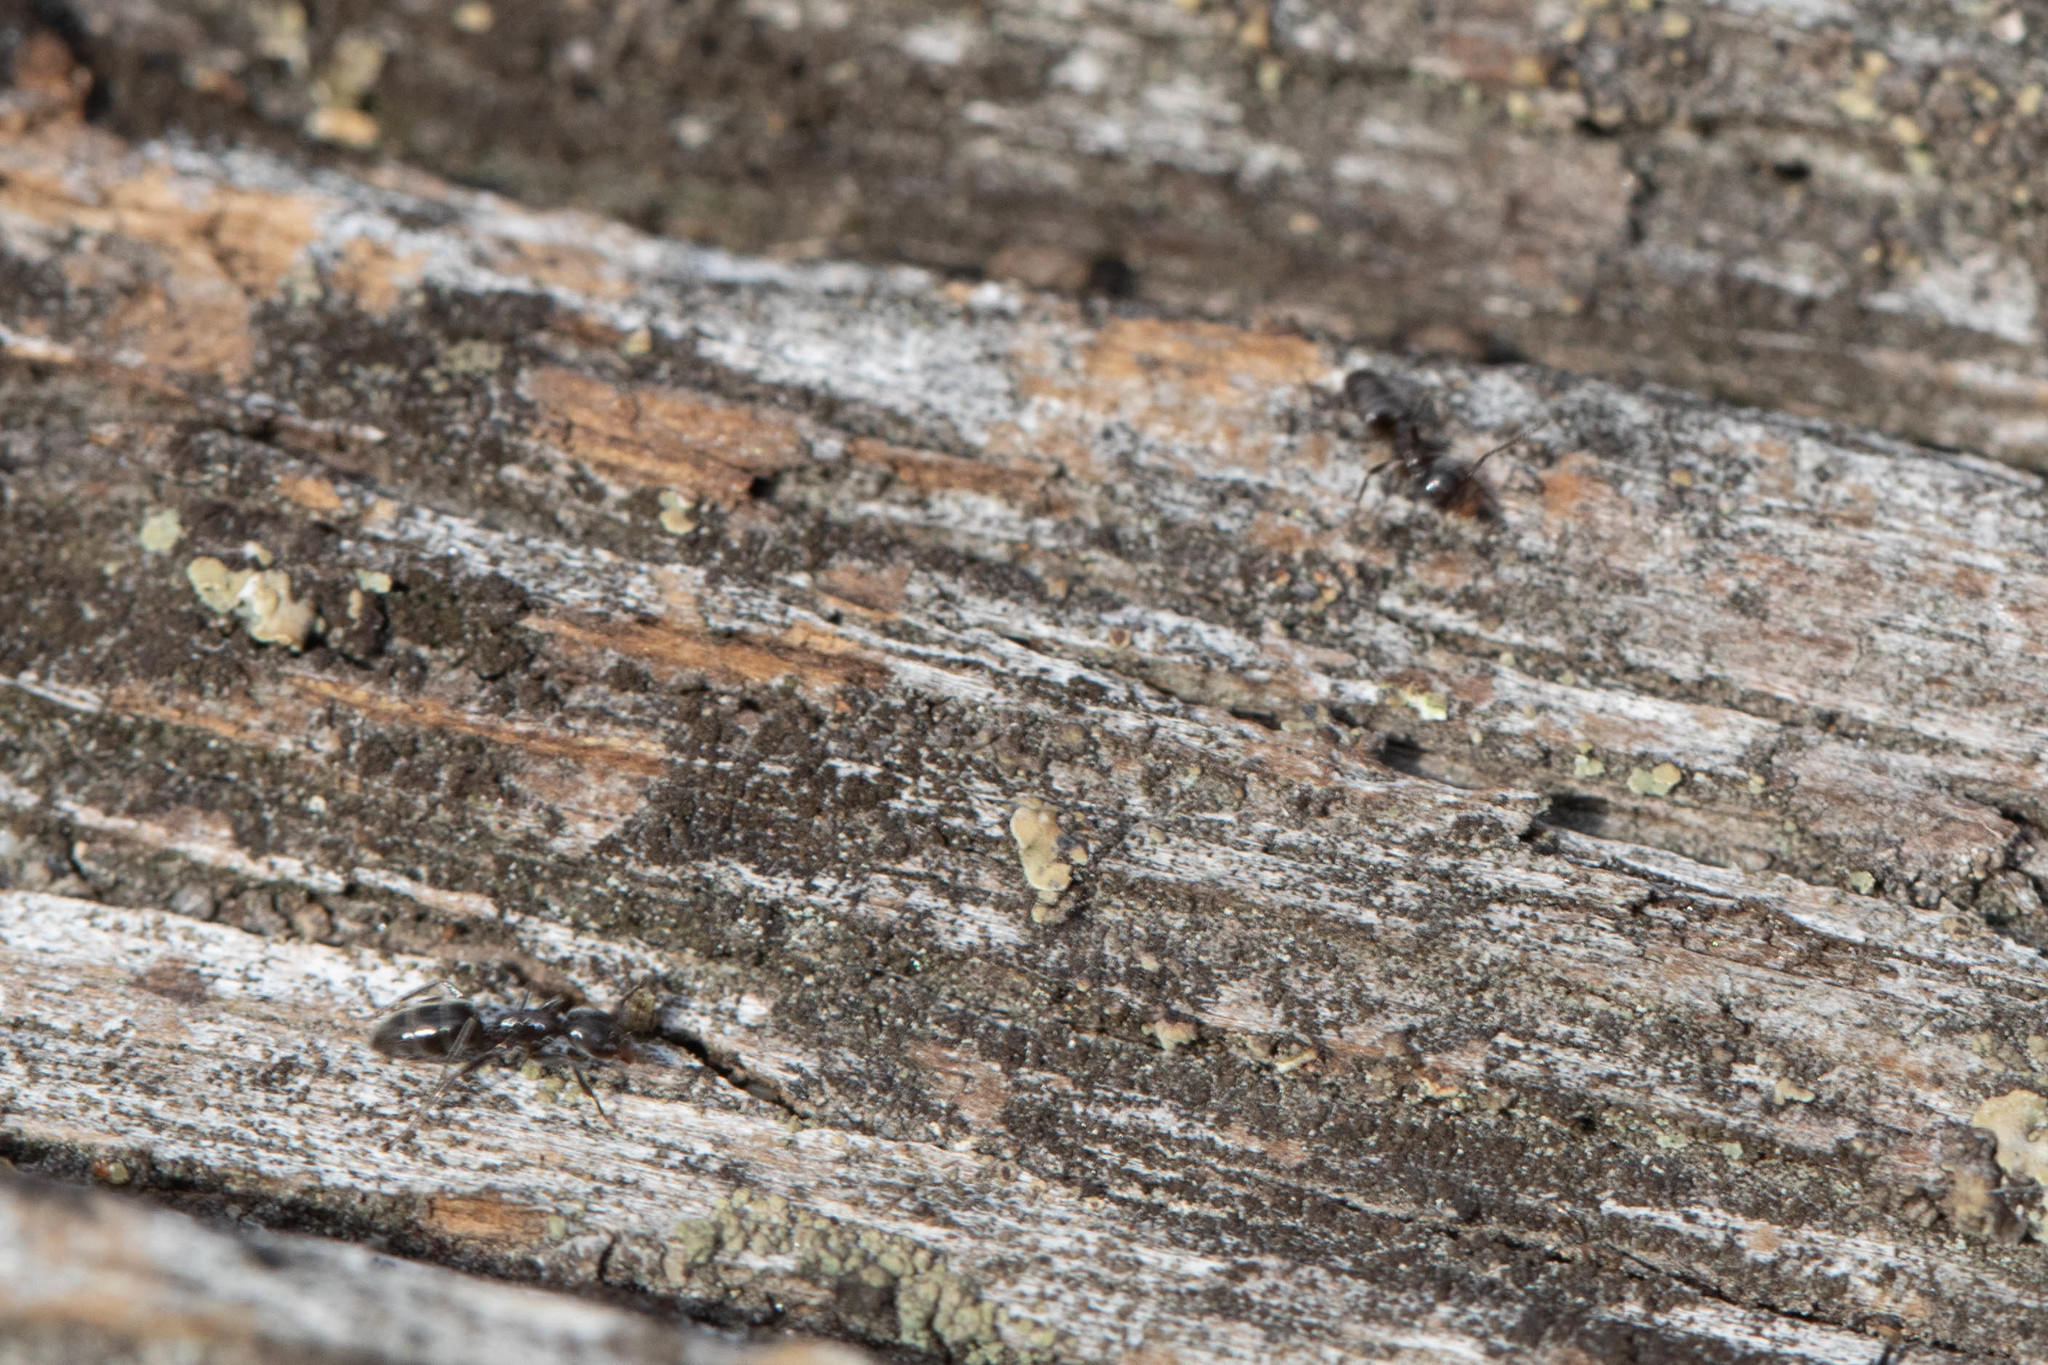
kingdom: Animalia
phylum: Arthropoda
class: Insecta
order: Hymenoptera
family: Formicidae
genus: Liometopum
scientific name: Liometopum luctuosum
